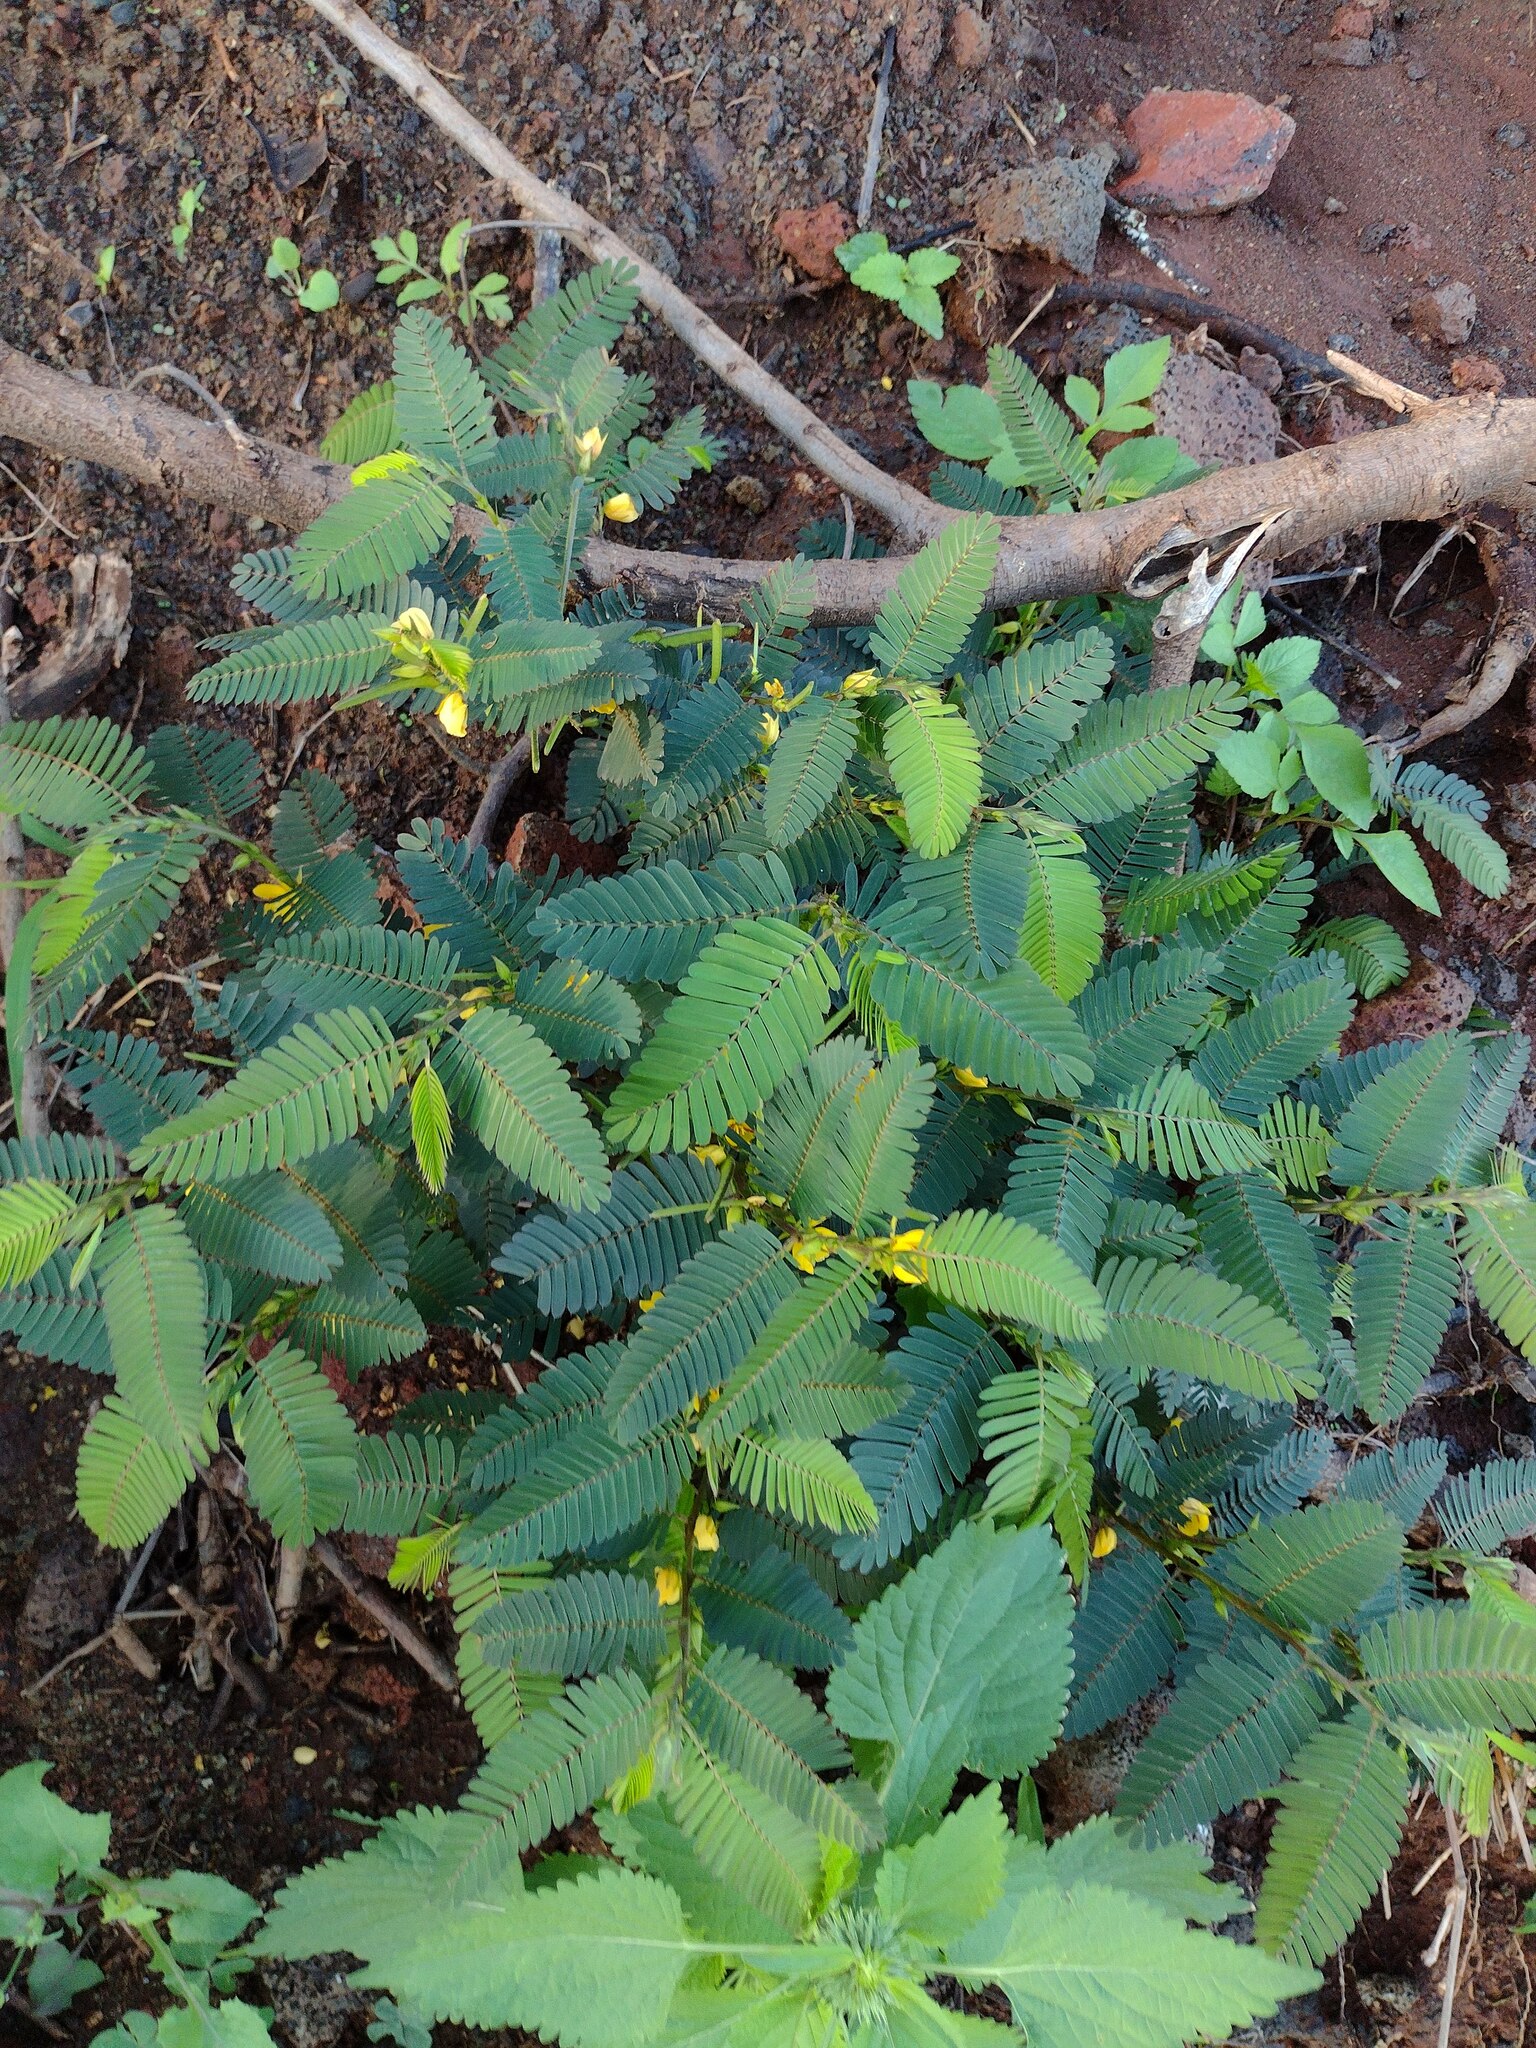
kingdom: Plantae
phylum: Tracheophyta
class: Magnoliopsida
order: Fabales
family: Fabaceae
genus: Chamaecrista
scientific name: Chamaecrista nictitans
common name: Sensitive cassia
